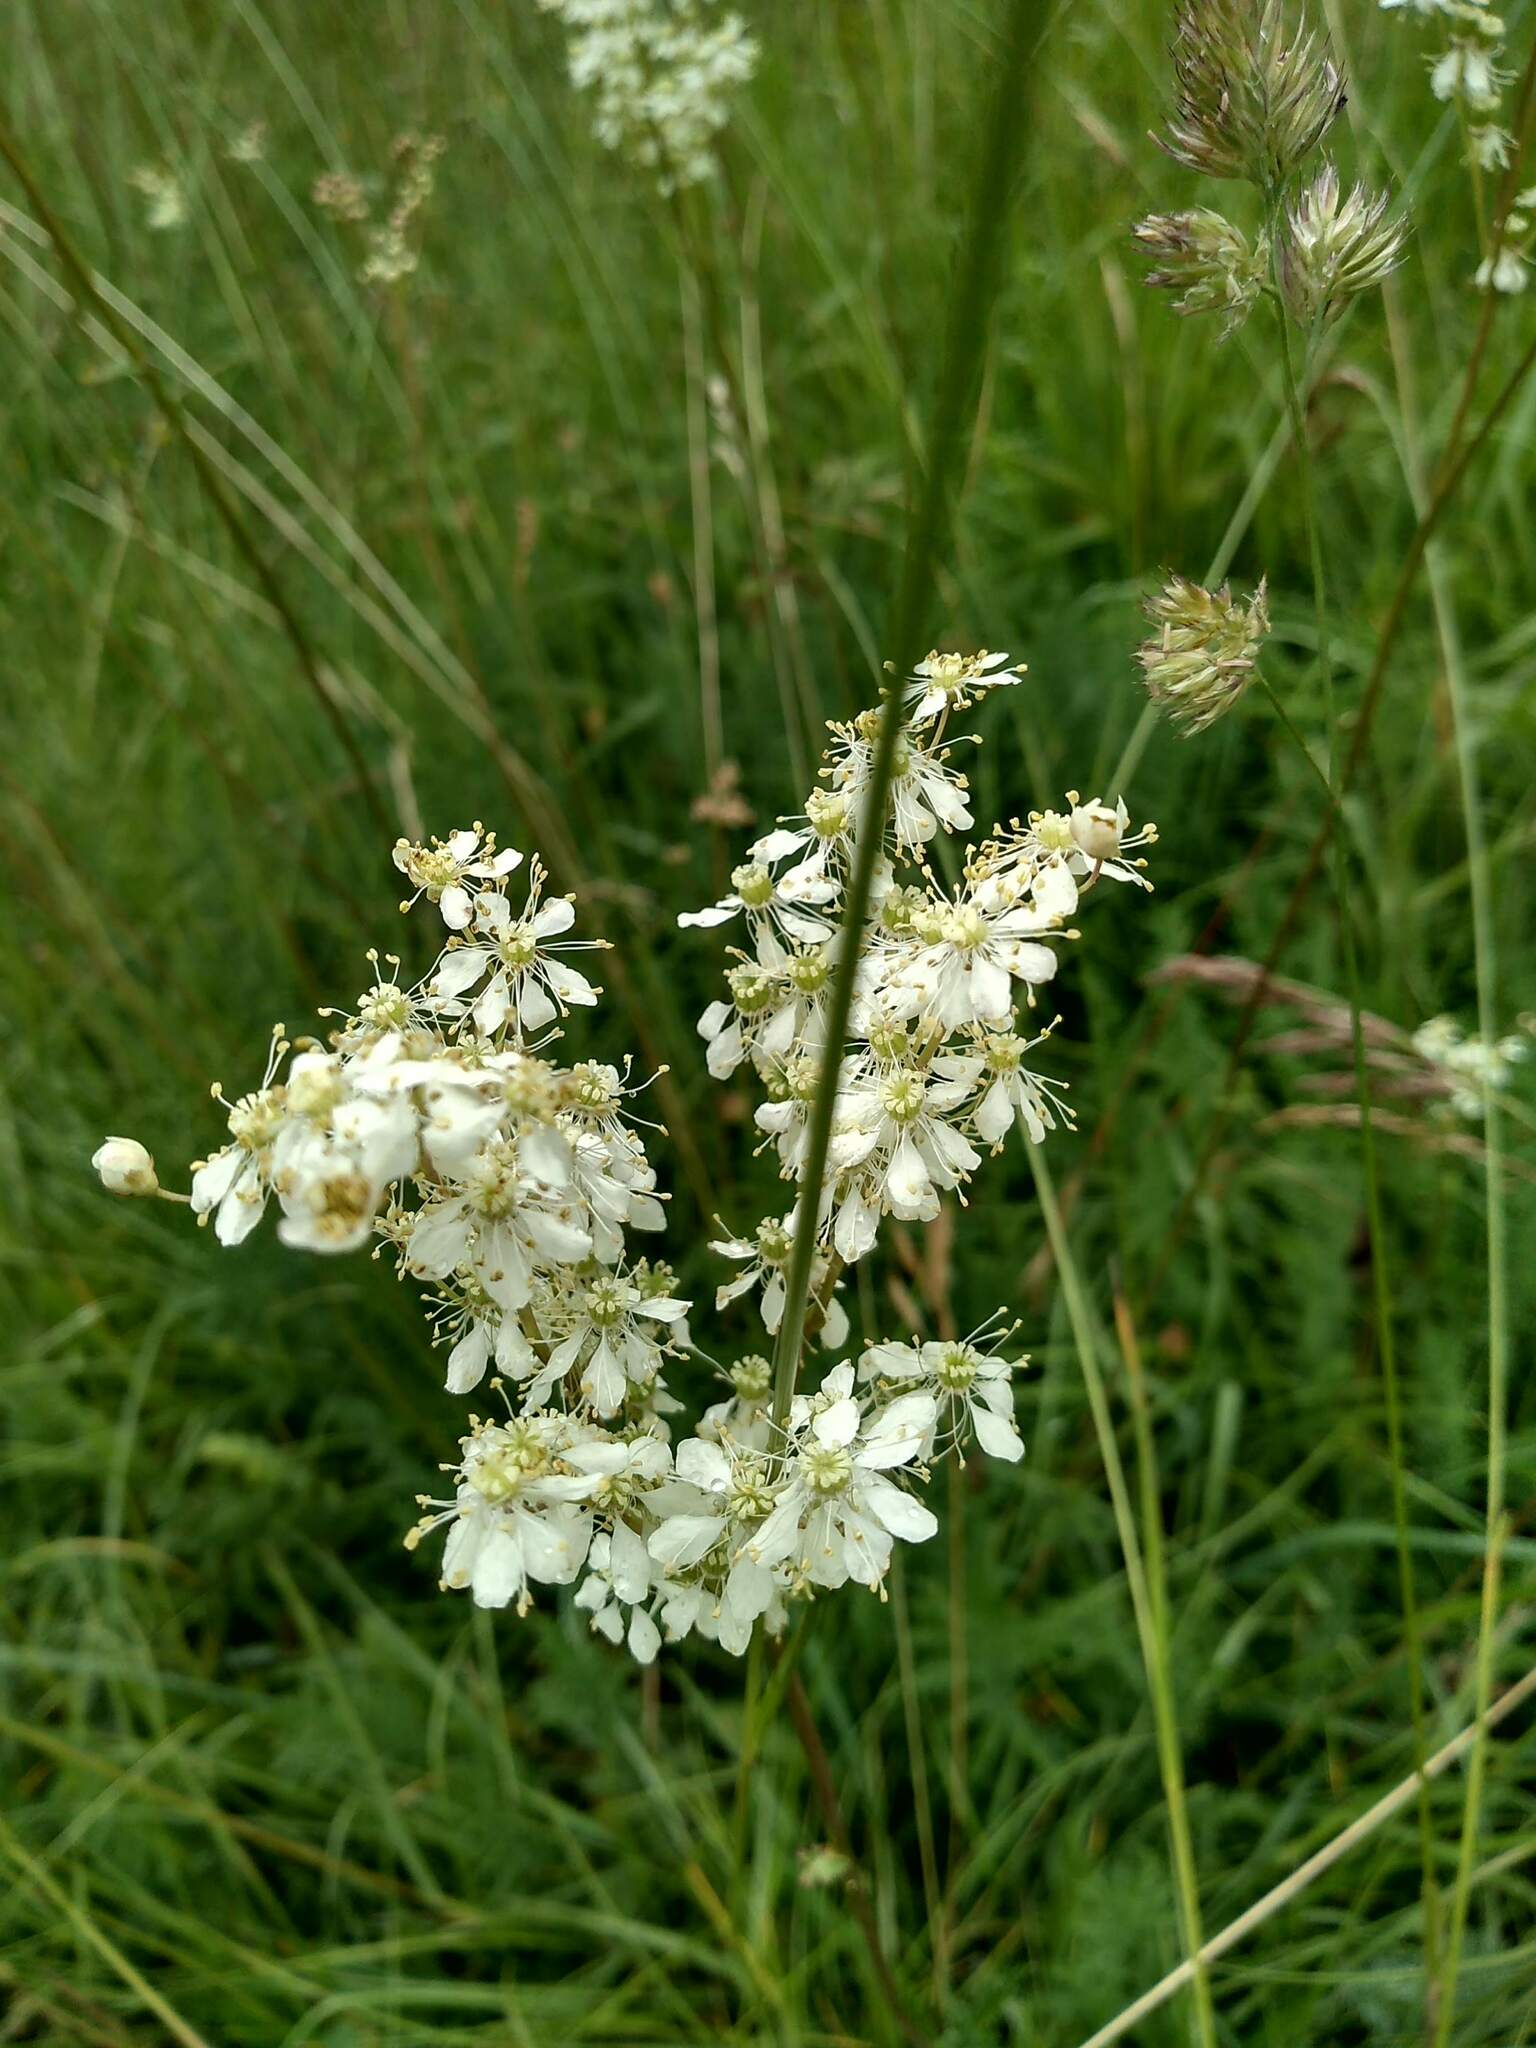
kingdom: Plantae
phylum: Tracheophyta
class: Magnoliopsida
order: Rosales
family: Rosaceae
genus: Filipendula
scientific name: Filipendula vulgaris
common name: Dropwort
